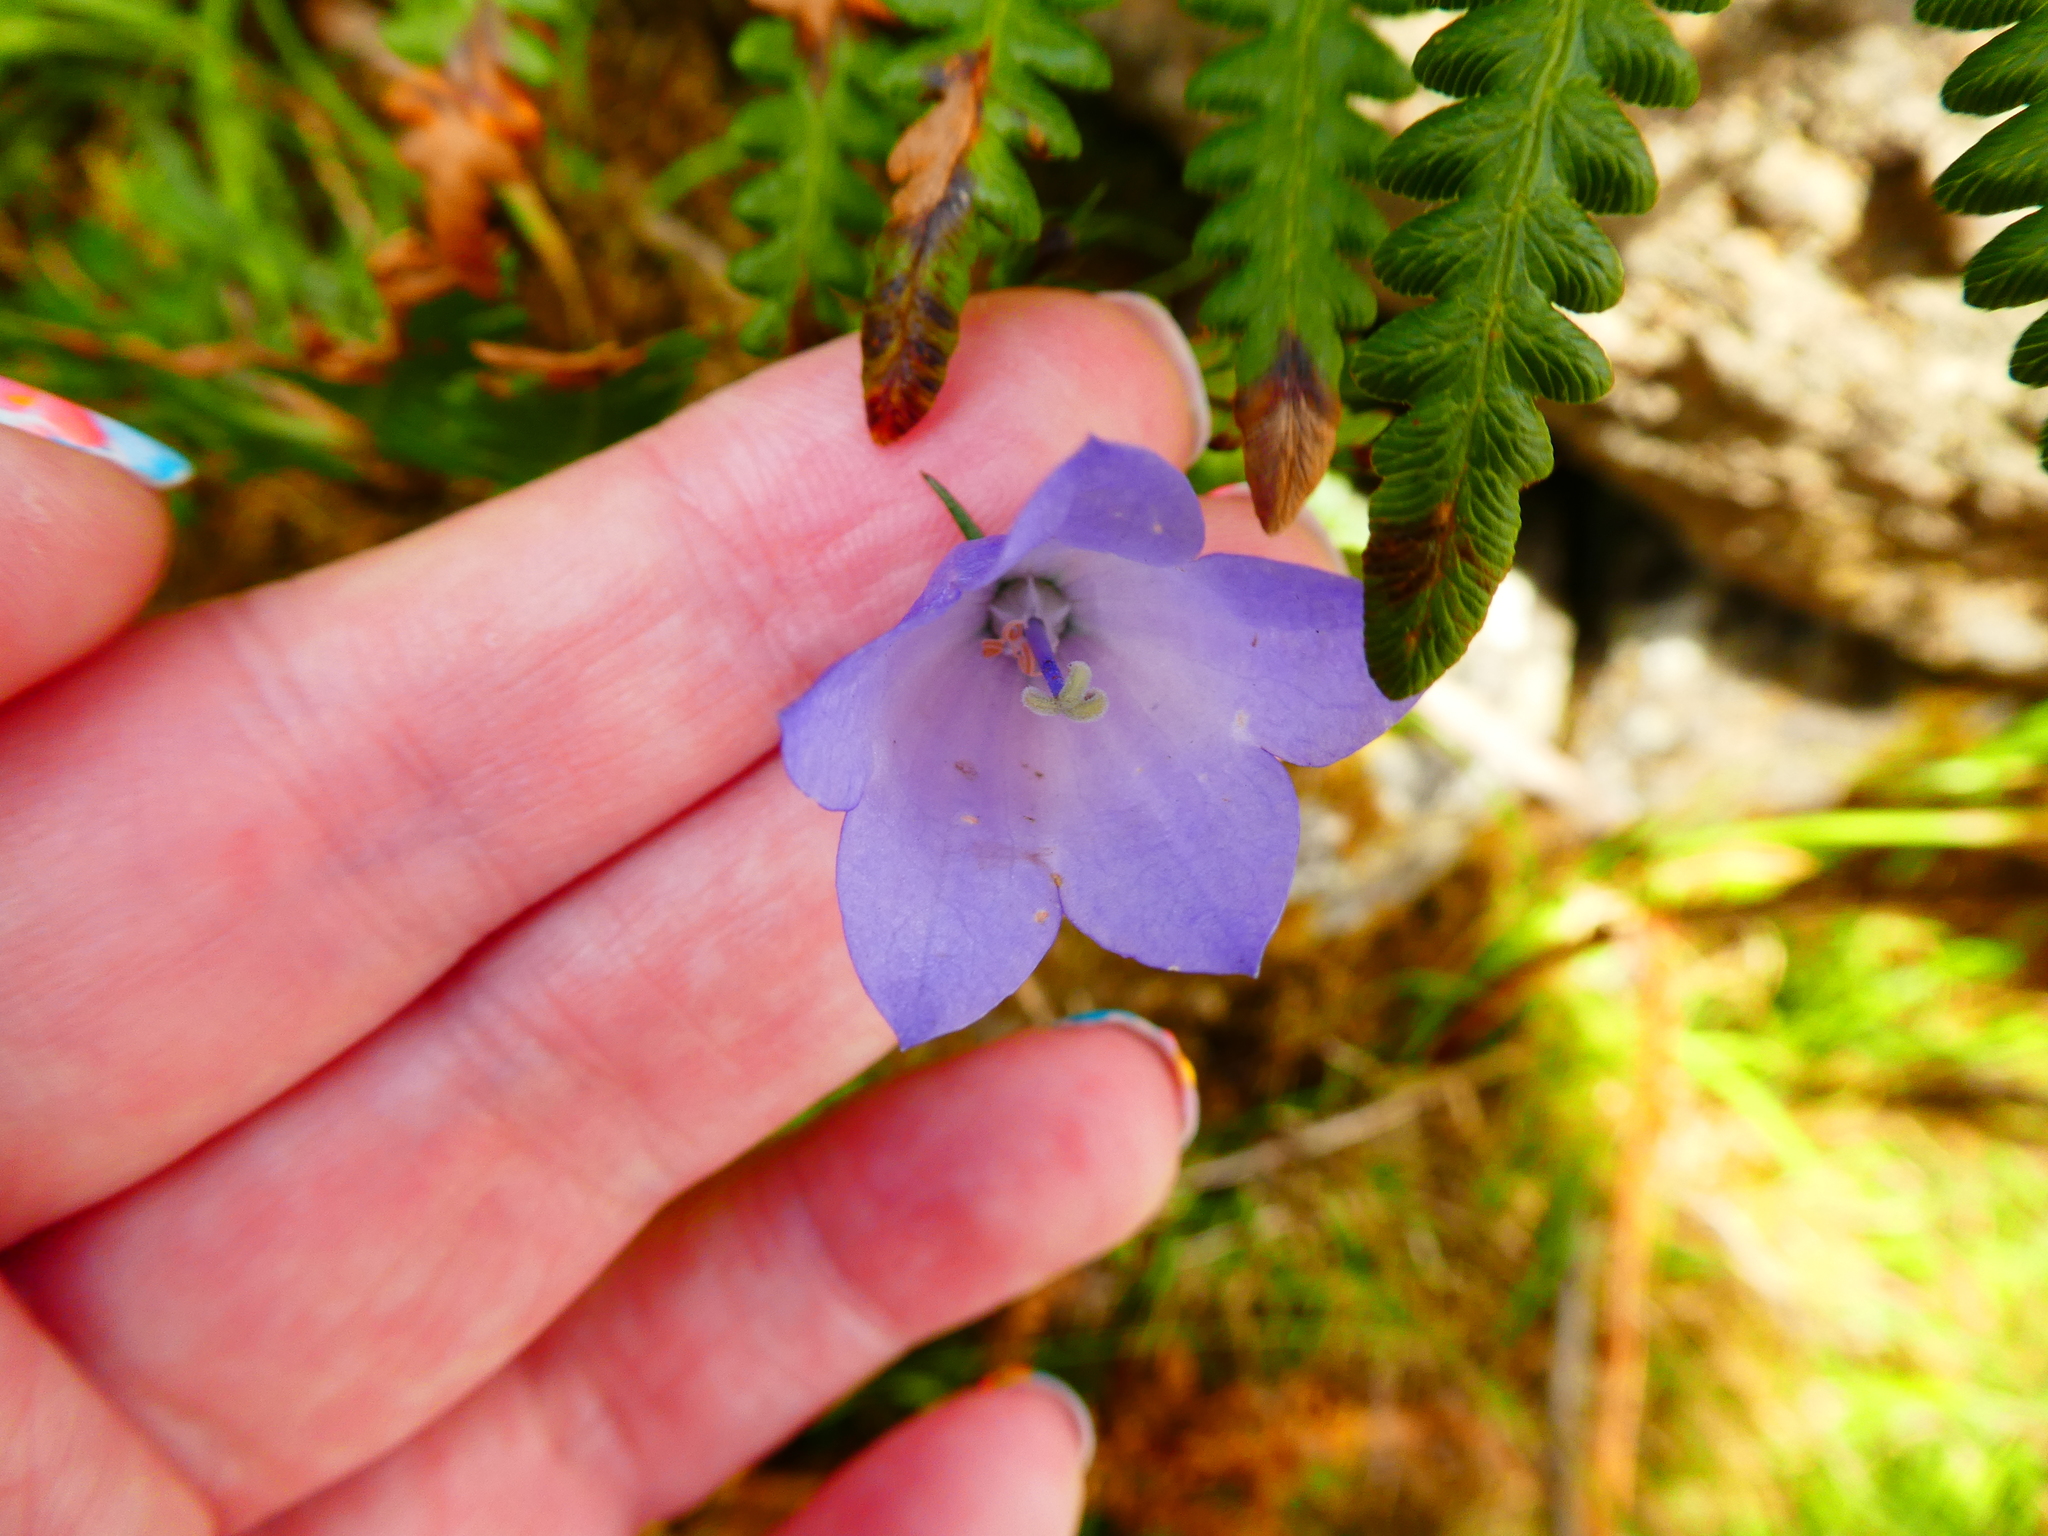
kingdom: Plantae
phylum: Tracheophyta
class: Magnoliopsida
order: Asterales
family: Campanulaceae
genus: Campanula
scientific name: Campanula rotundifolia
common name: Harebell
